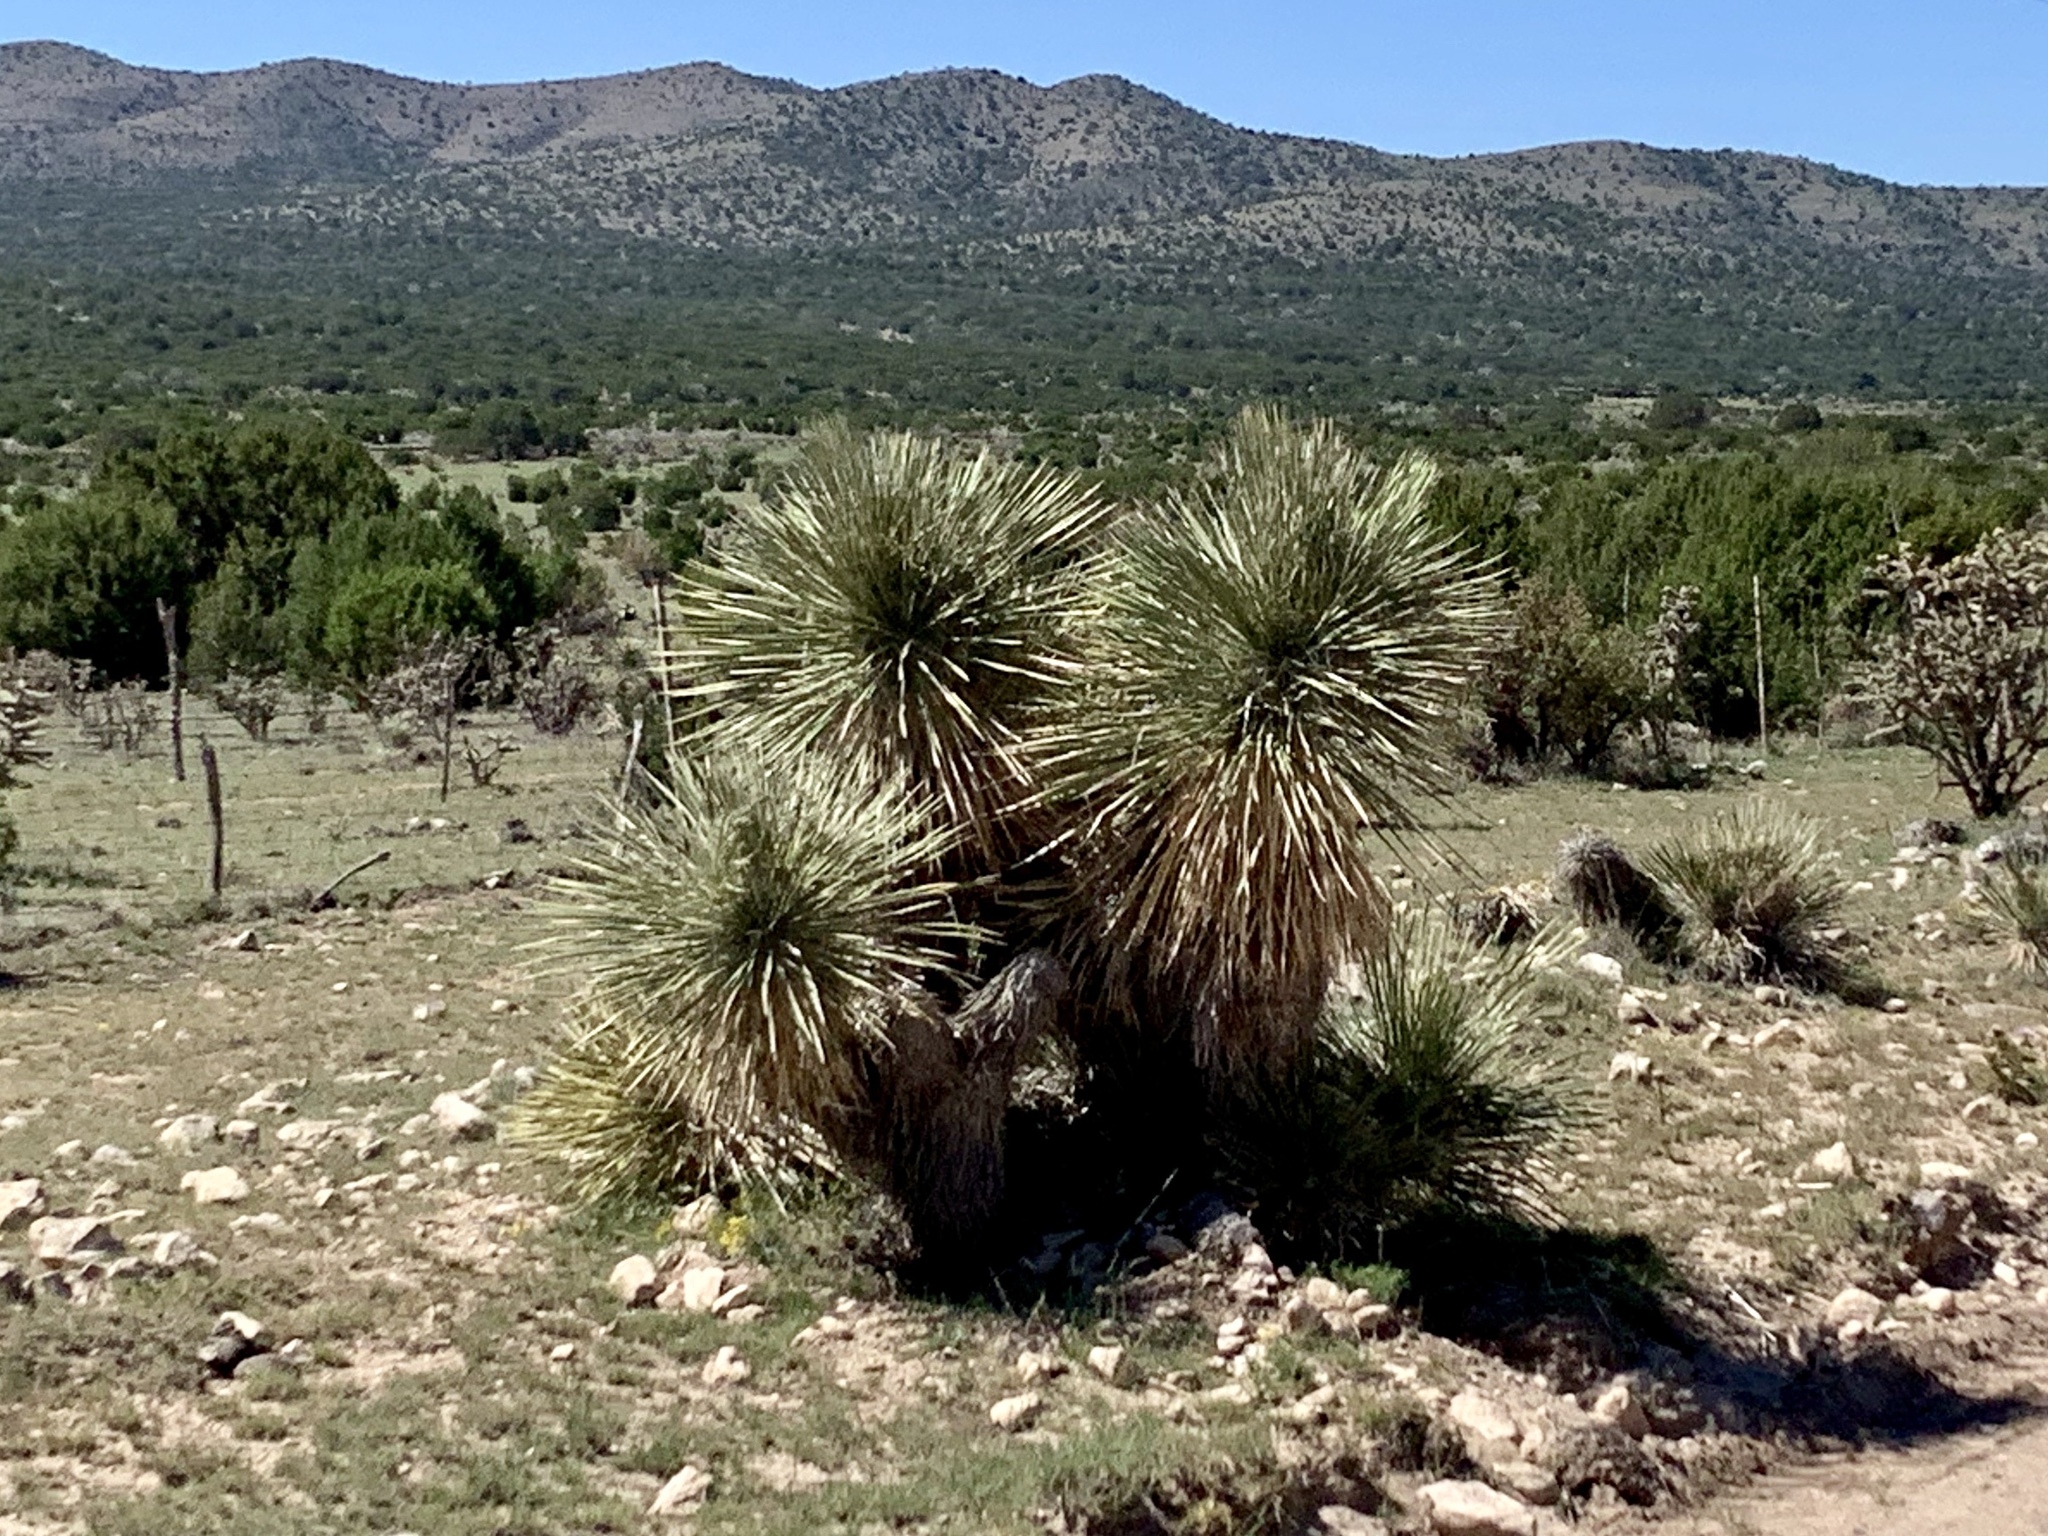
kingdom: Plantae
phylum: Tracheophyta
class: Liliopsida
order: Asparagales
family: Asparagaceae
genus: Yucca
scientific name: Yucca elata
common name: Palmella
